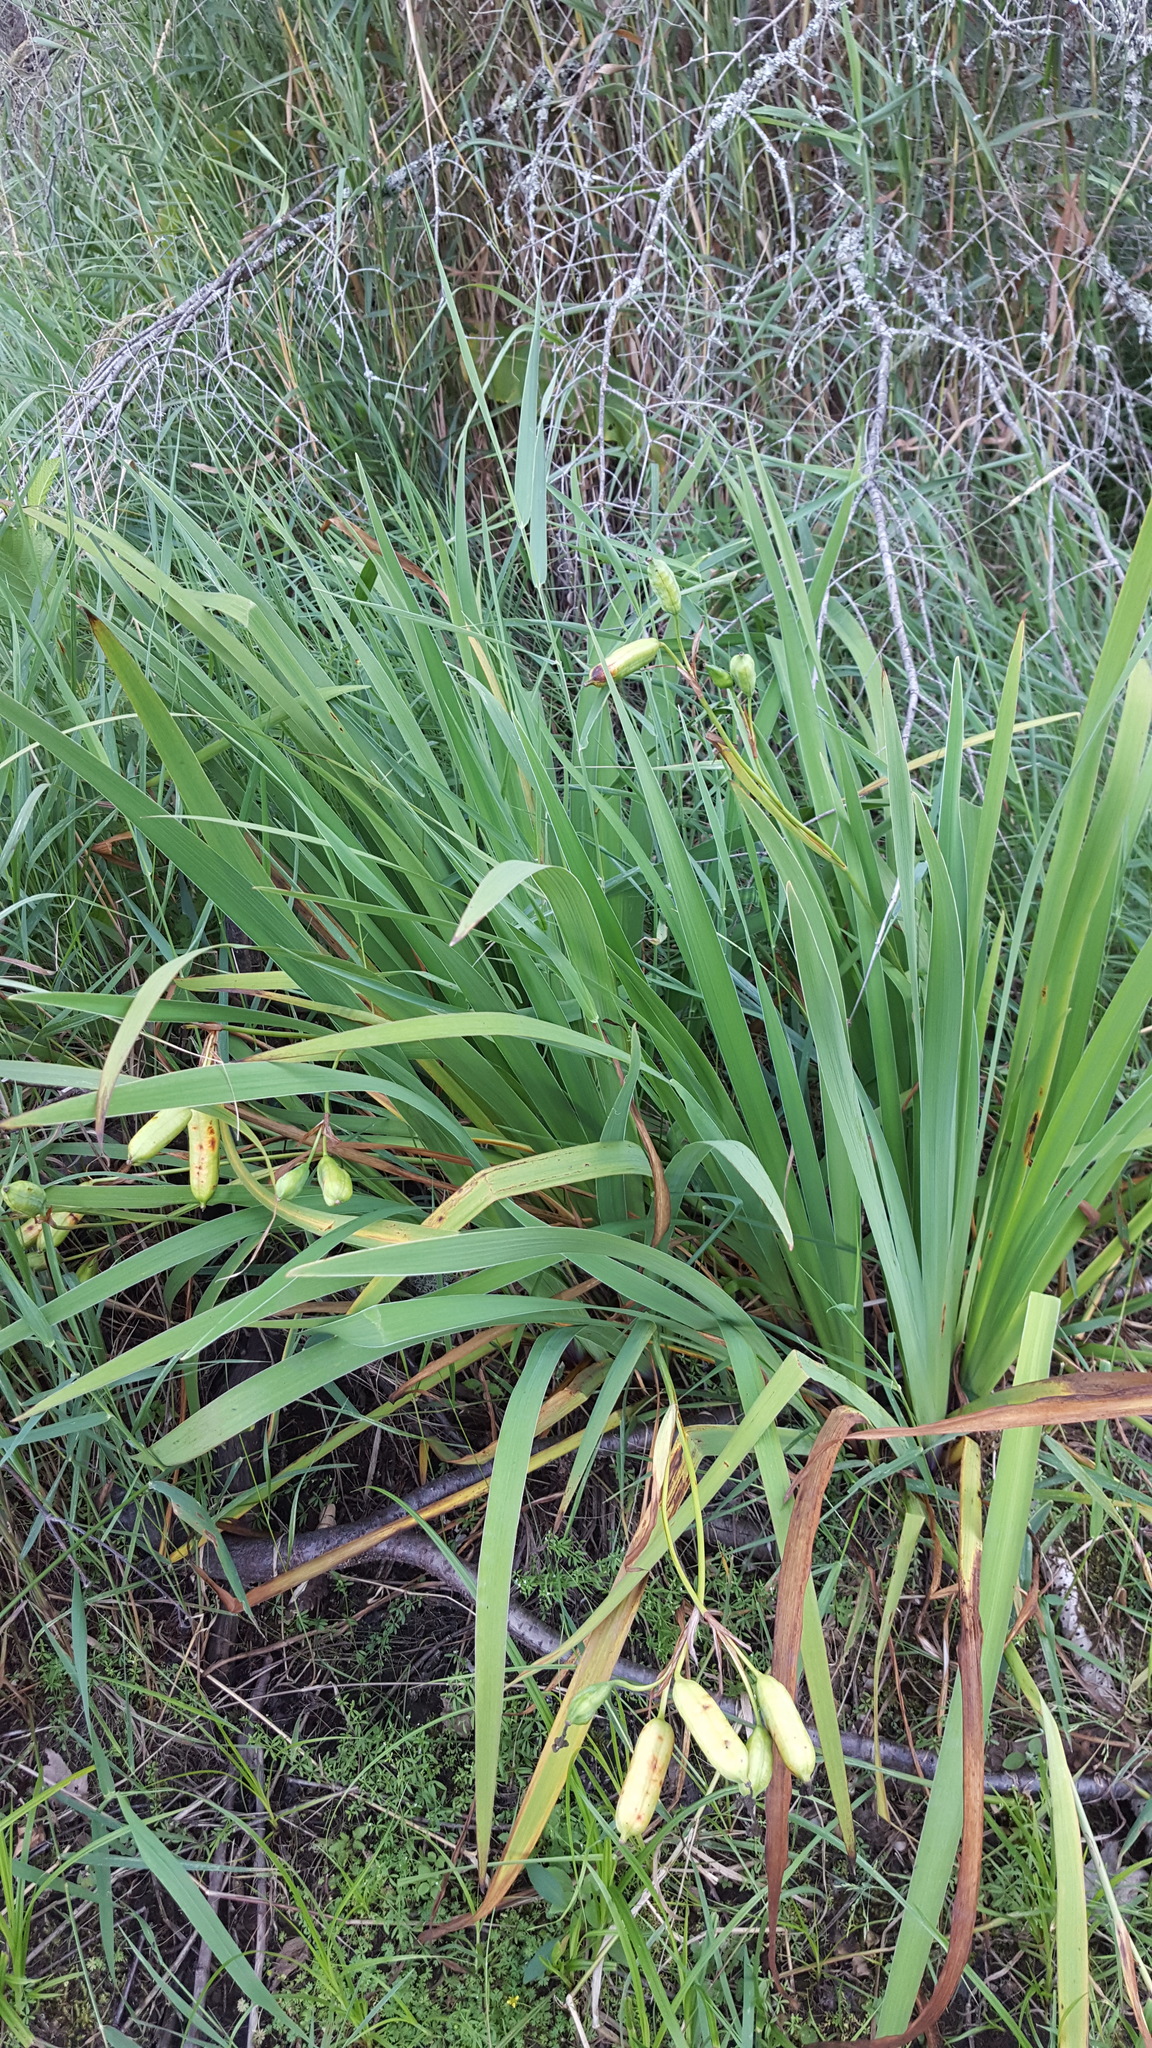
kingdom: Plantae
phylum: Tracheophyta
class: Liliopsida
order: Asparagales
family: Iridaceae
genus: Iris
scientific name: Iris versicolor
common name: Purple iris
